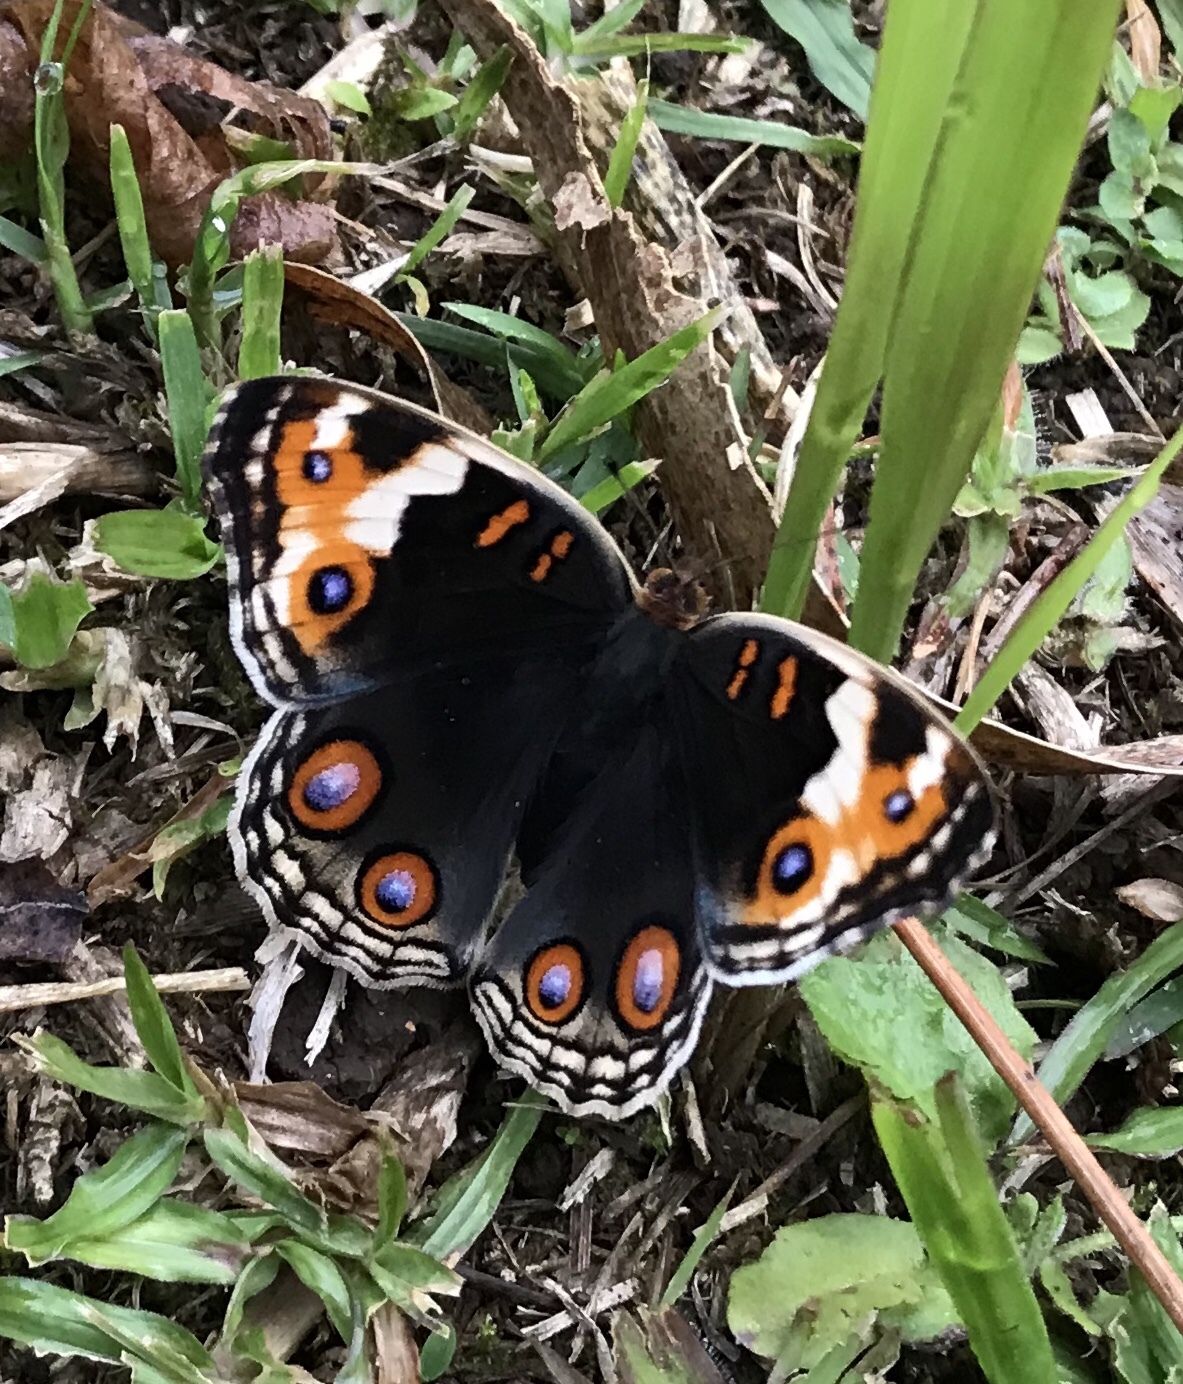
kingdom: Animalia
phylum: Arthropoda
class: Insecta
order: Lepidoptera
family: Nymphalidae
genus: Junonia
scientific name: Junonia orithya
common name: Blue pansy
